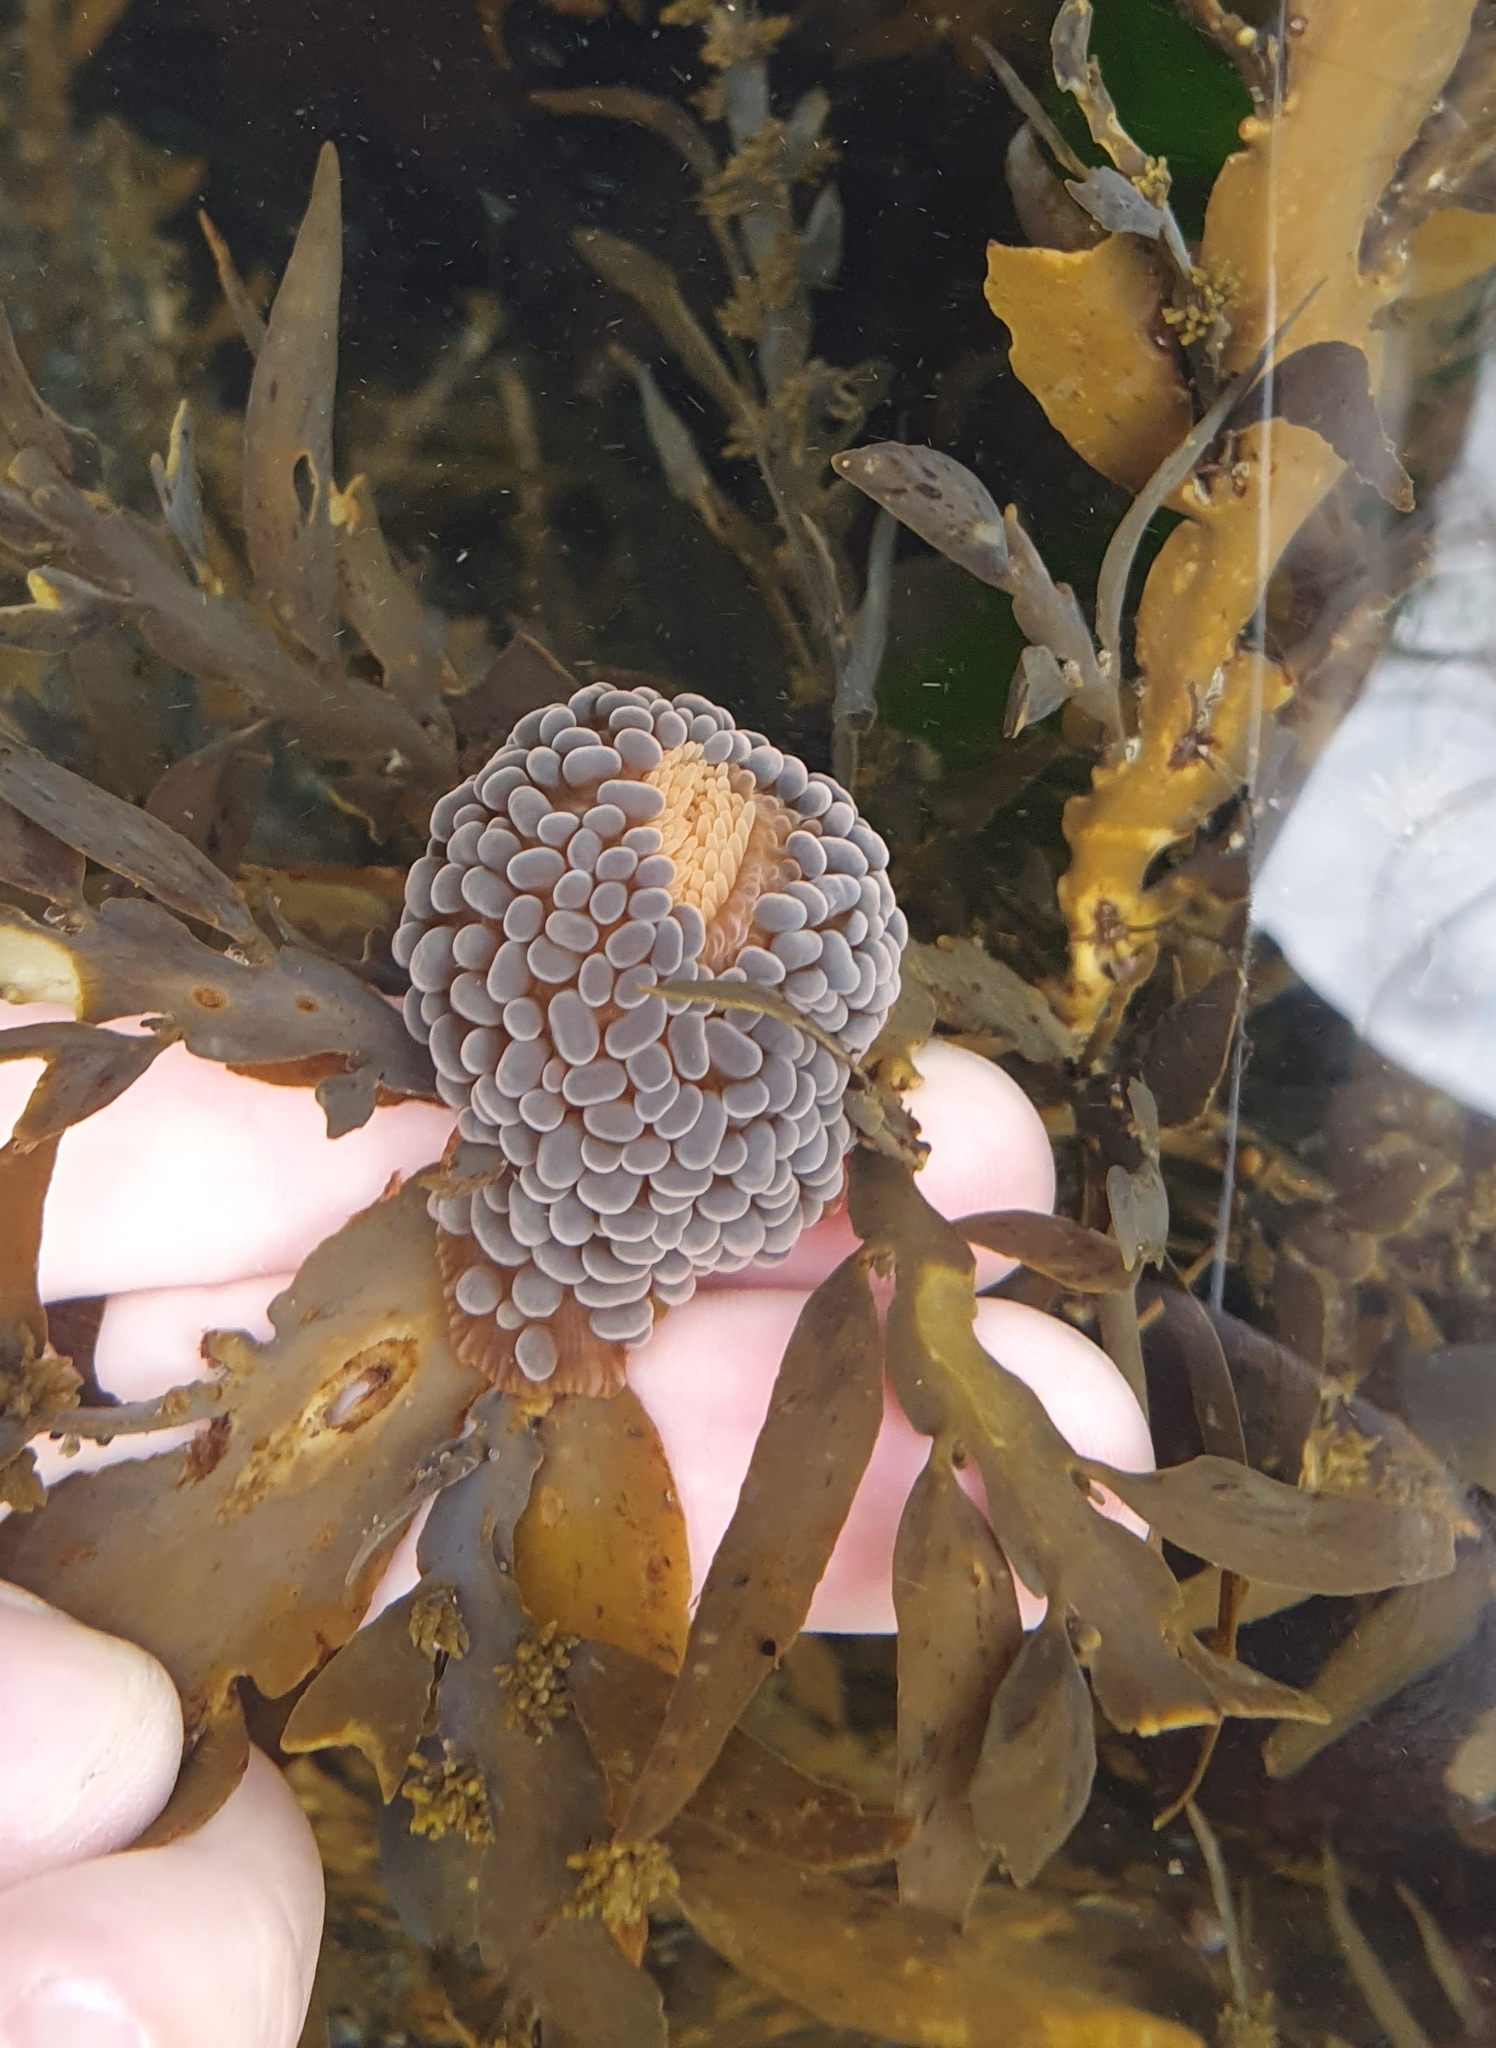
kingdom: Animalia
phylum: Cnidaria
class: Anthozoa
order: Actiniaria
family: Actiniidae
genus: Phlyctenactis
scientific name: Phlyctenactis tuberculosa
